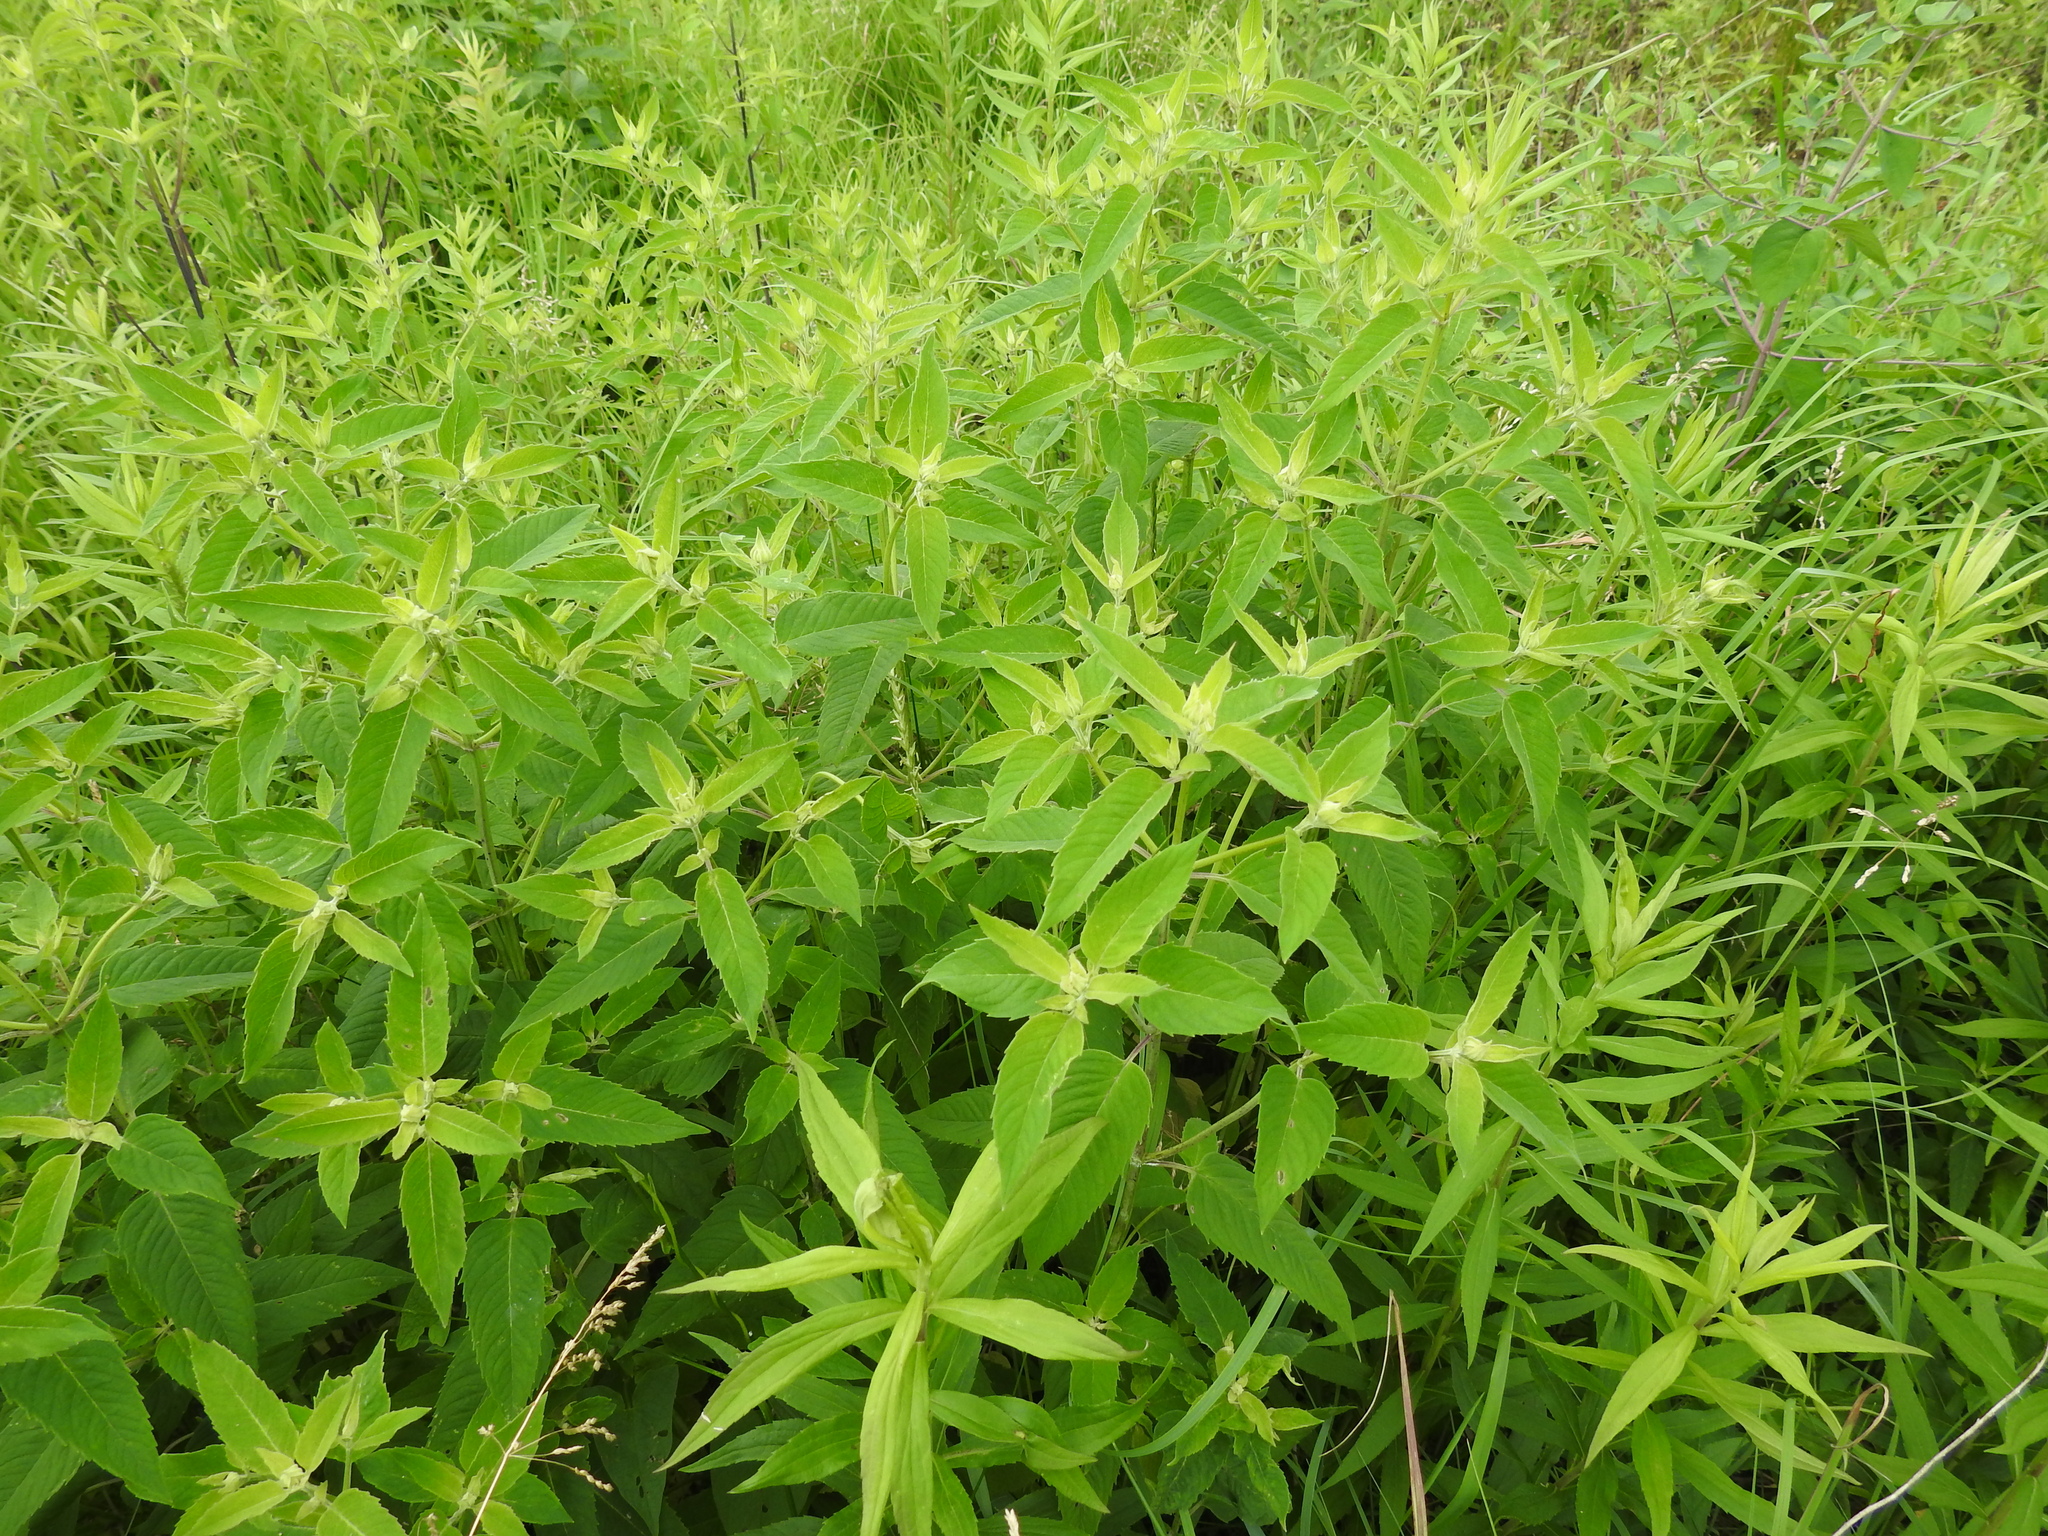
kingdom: Plantae
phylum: Tracheophyta
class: Magnoliopsida
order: Lamiales
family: Lamiaceae
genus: Monarda
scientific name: Monarda fistulosa
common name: Purple beebalm
